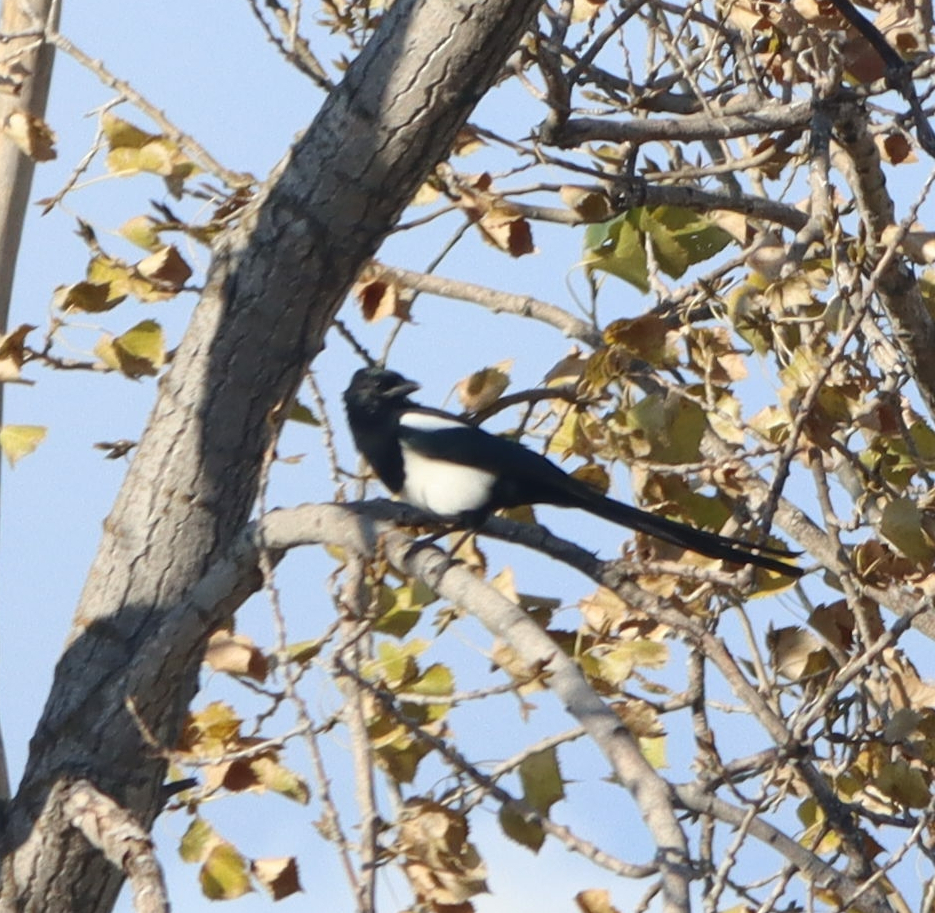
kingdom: Animalia
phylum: Chordata
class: Aves
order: Passeriformes
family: Corvidae
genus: Pica
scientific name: Pica hudsonia
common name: Black-billed magpie
